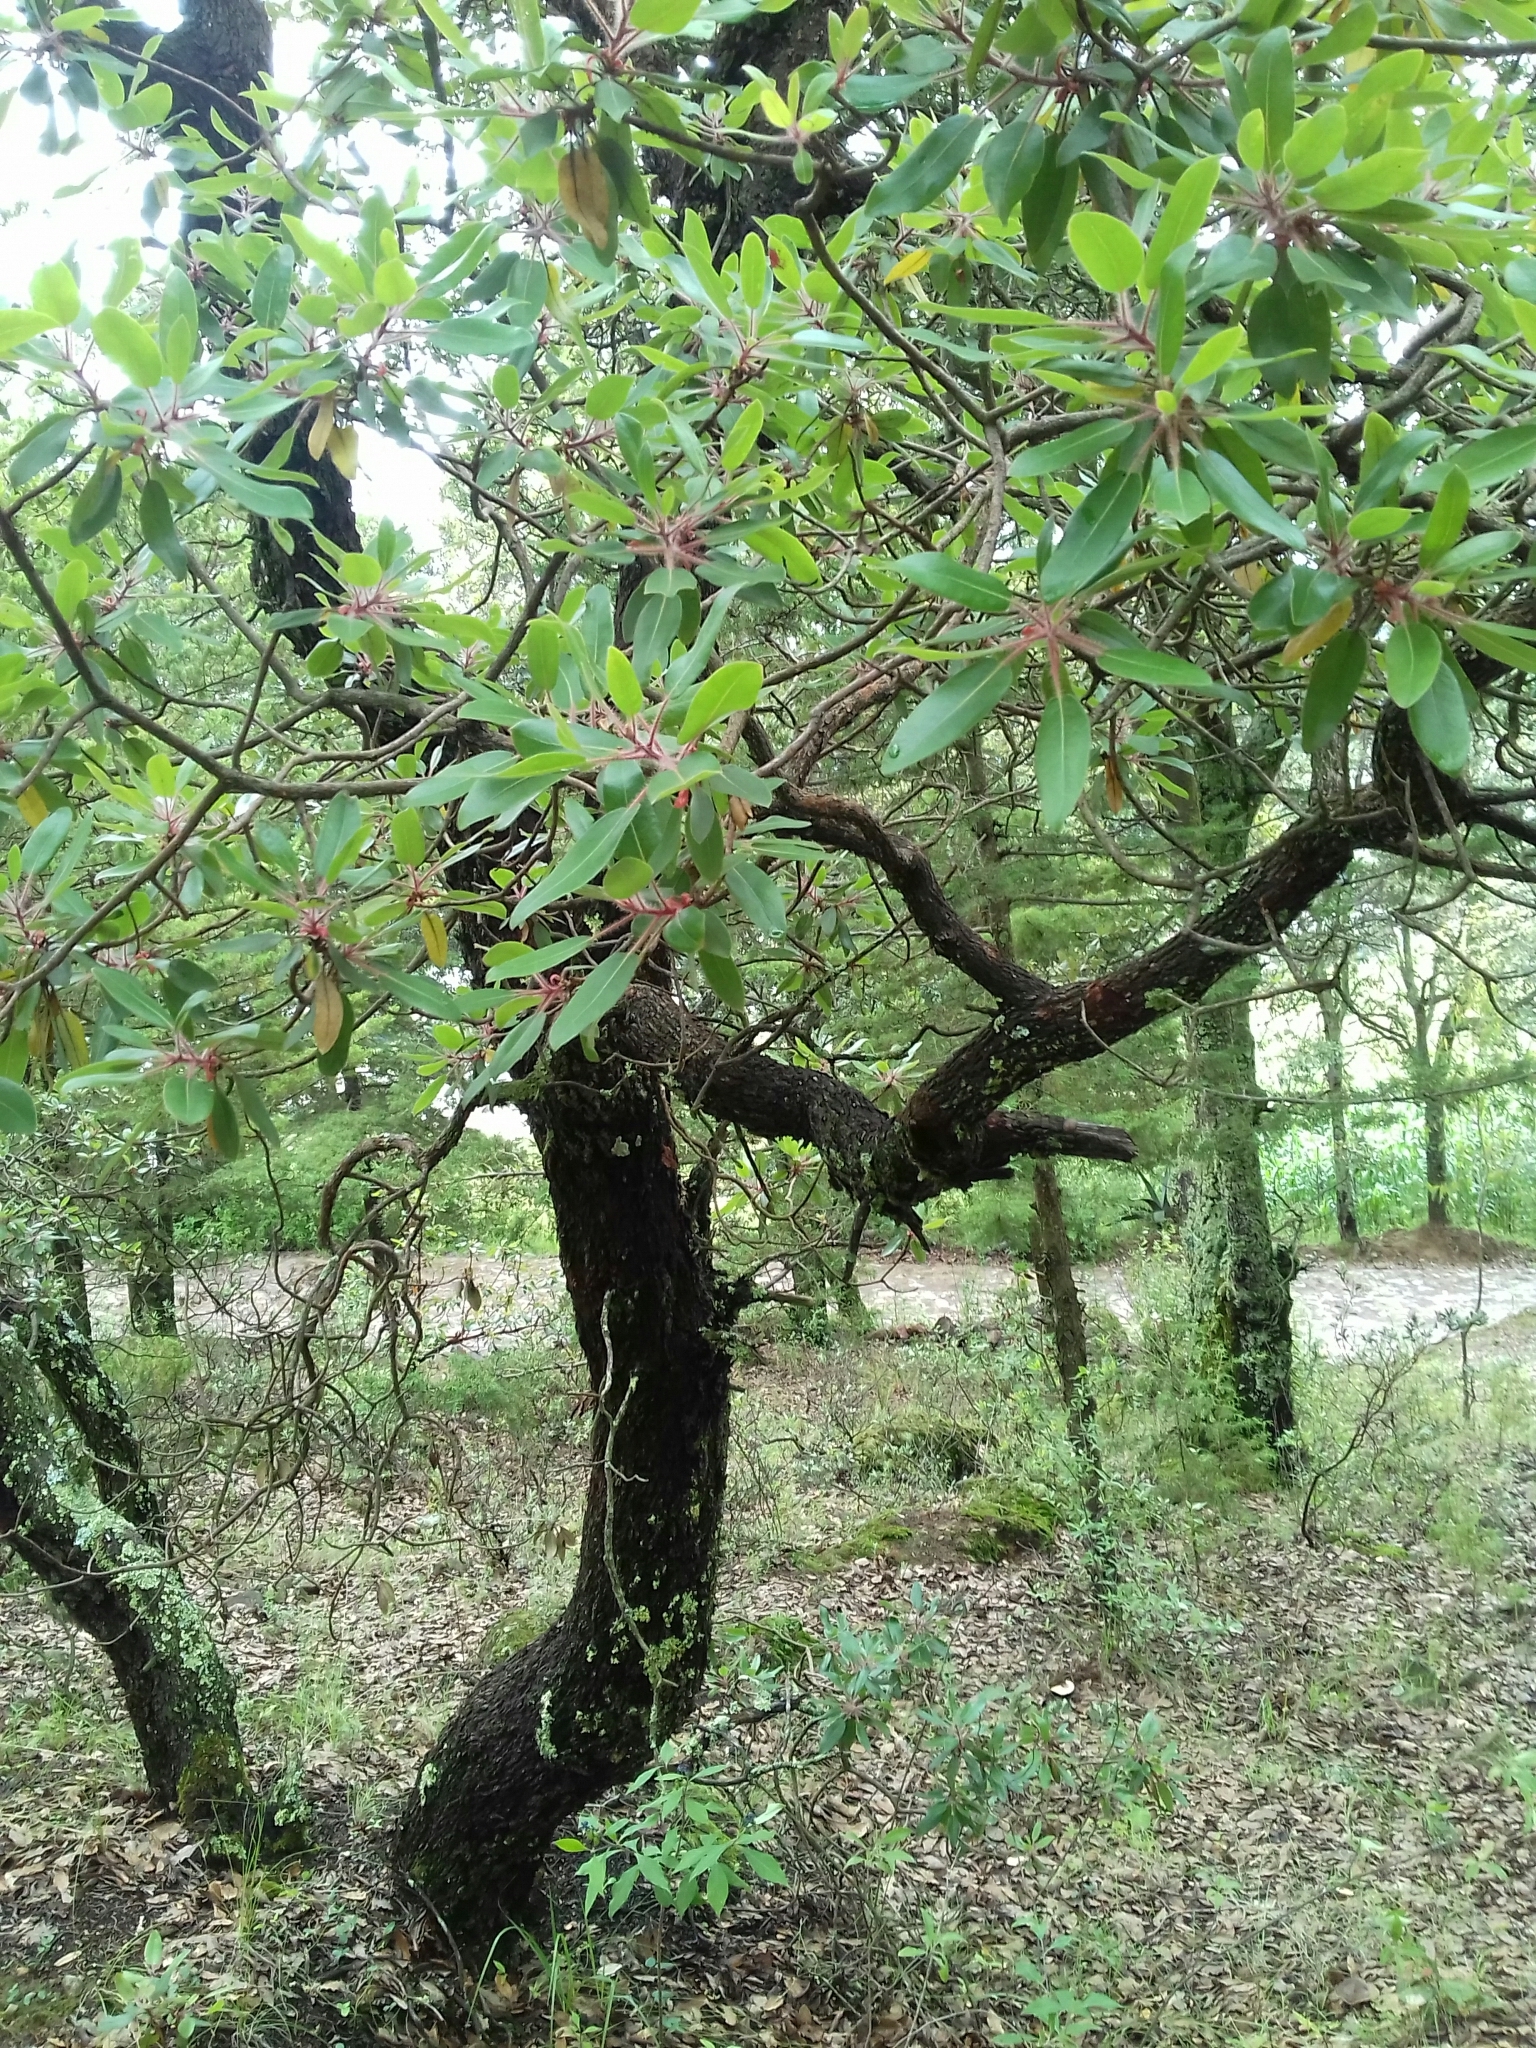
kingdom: Plantae
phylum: Tracheophyta
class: Magnoliopsida
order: Ericales
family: Ericaceae
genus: Arbutus
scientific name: Arbutus tessellata
